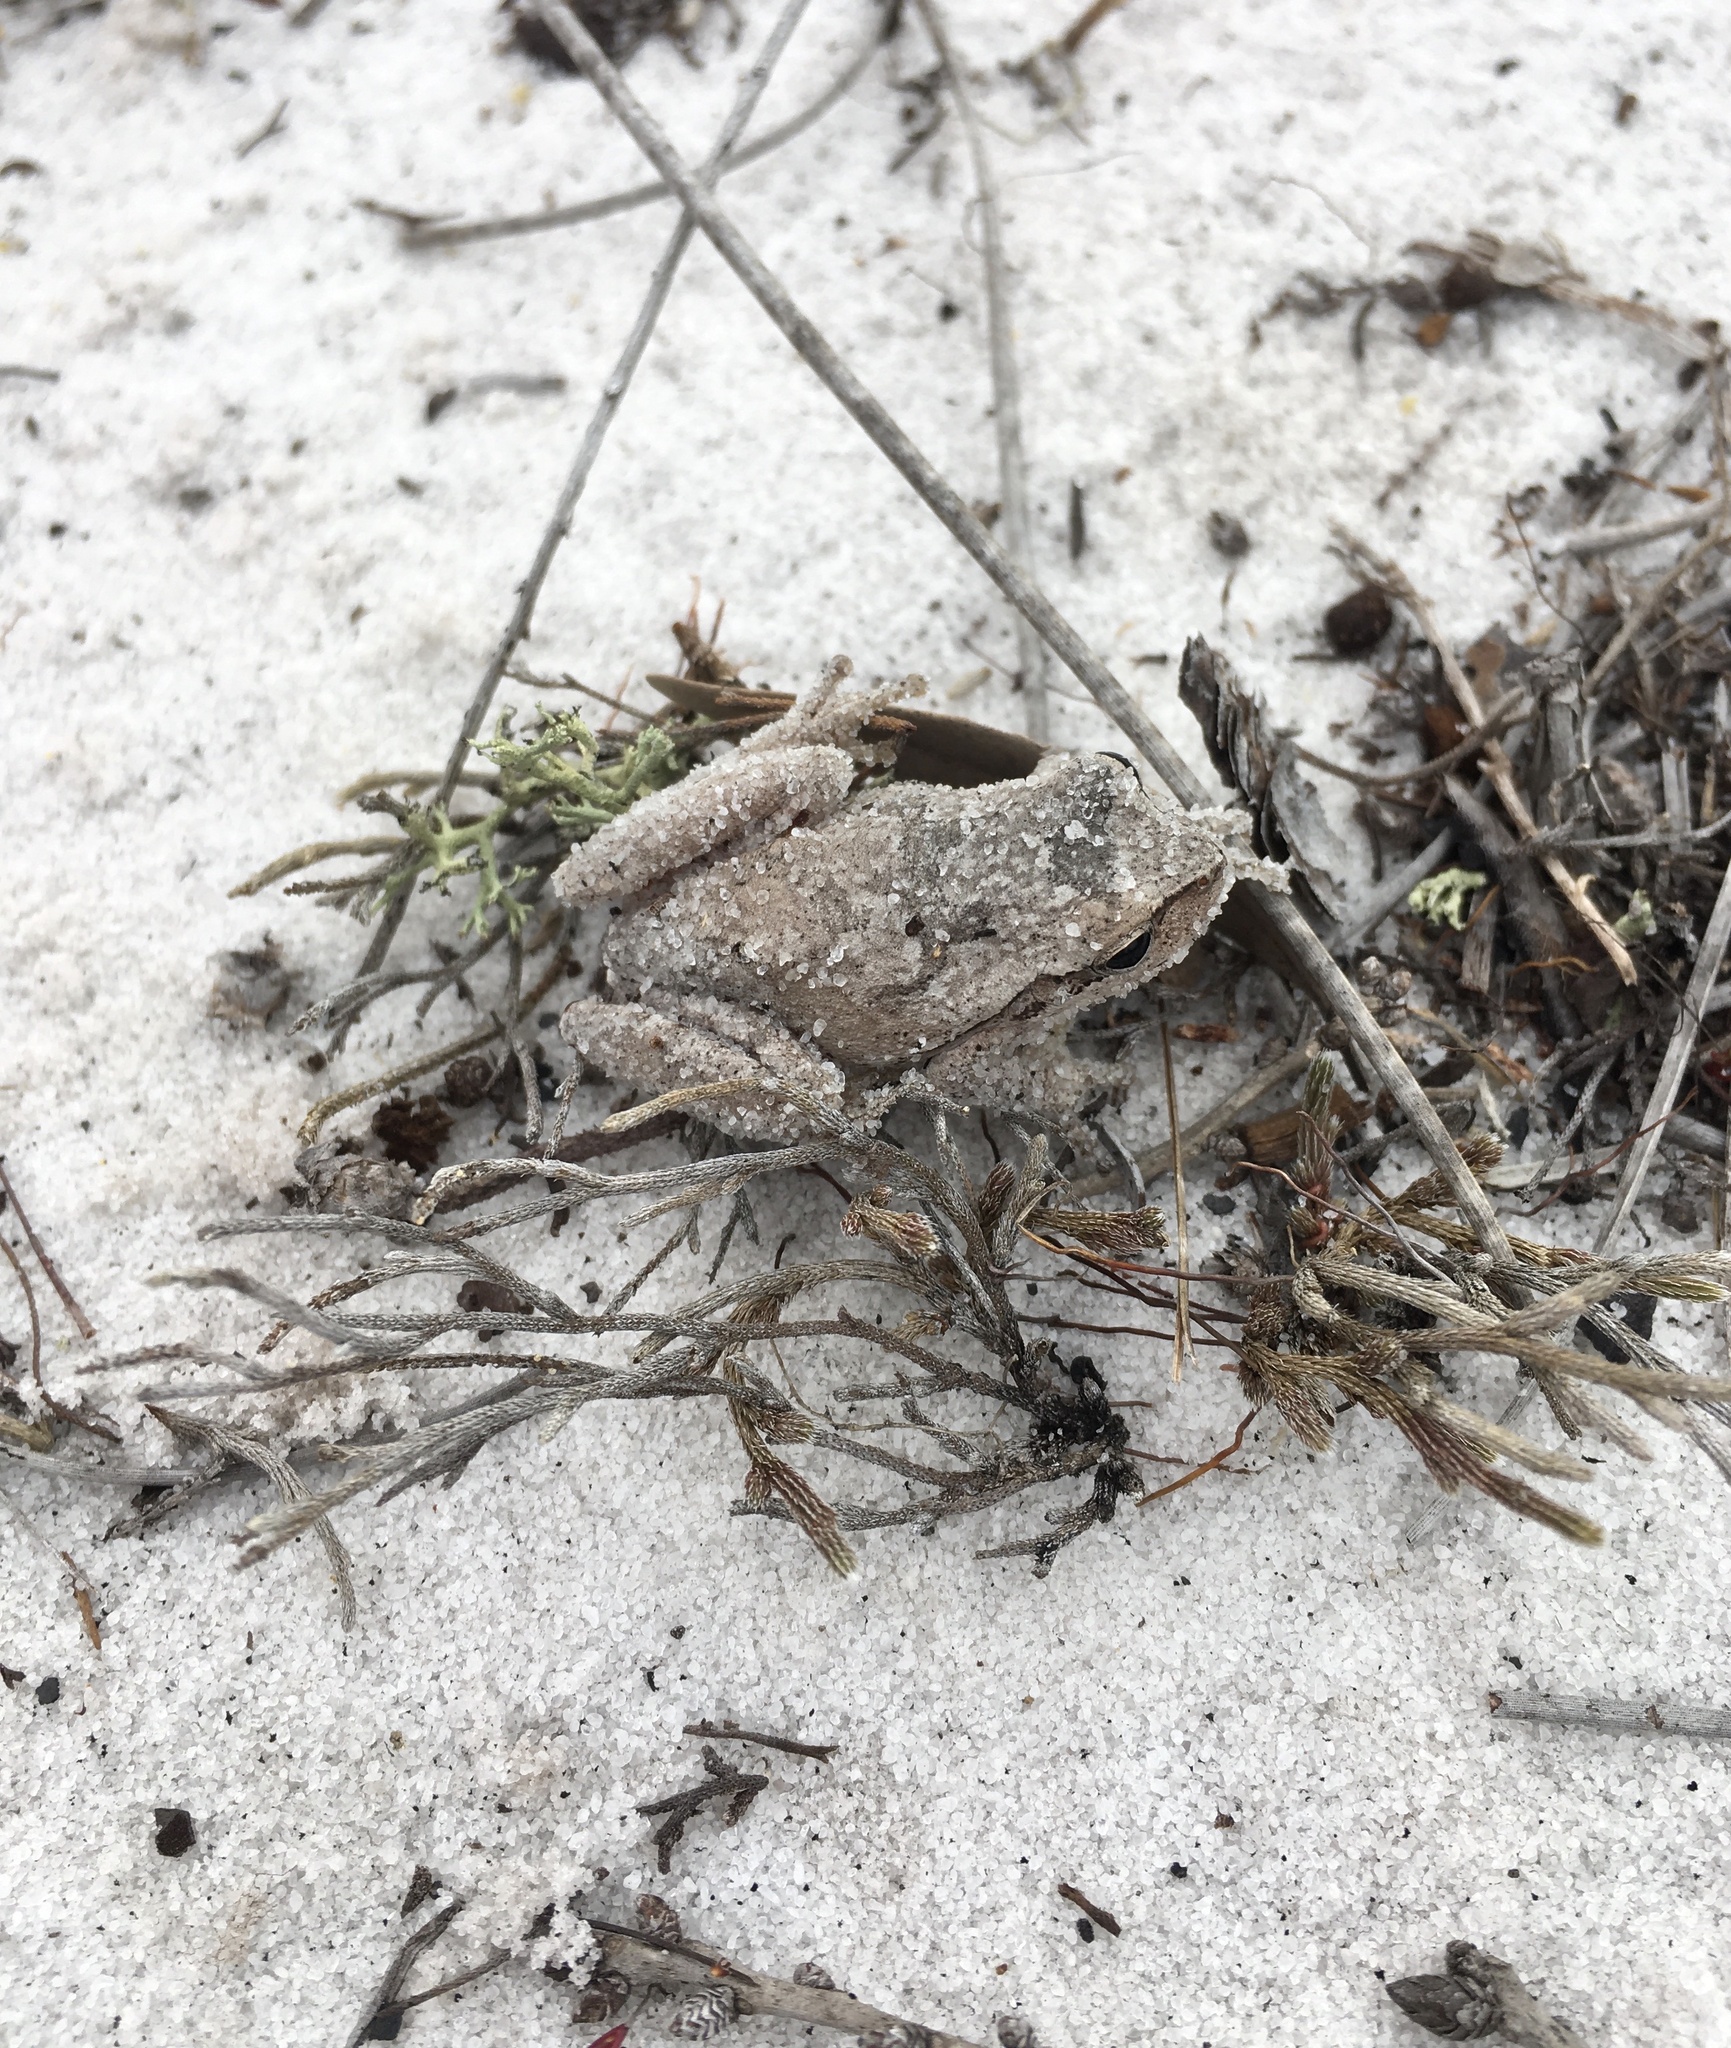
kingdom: Animalia
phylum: Chordata
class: Amphibia
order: Anura
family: Hylidae
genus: Hyla
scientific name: Hyla femoralis
